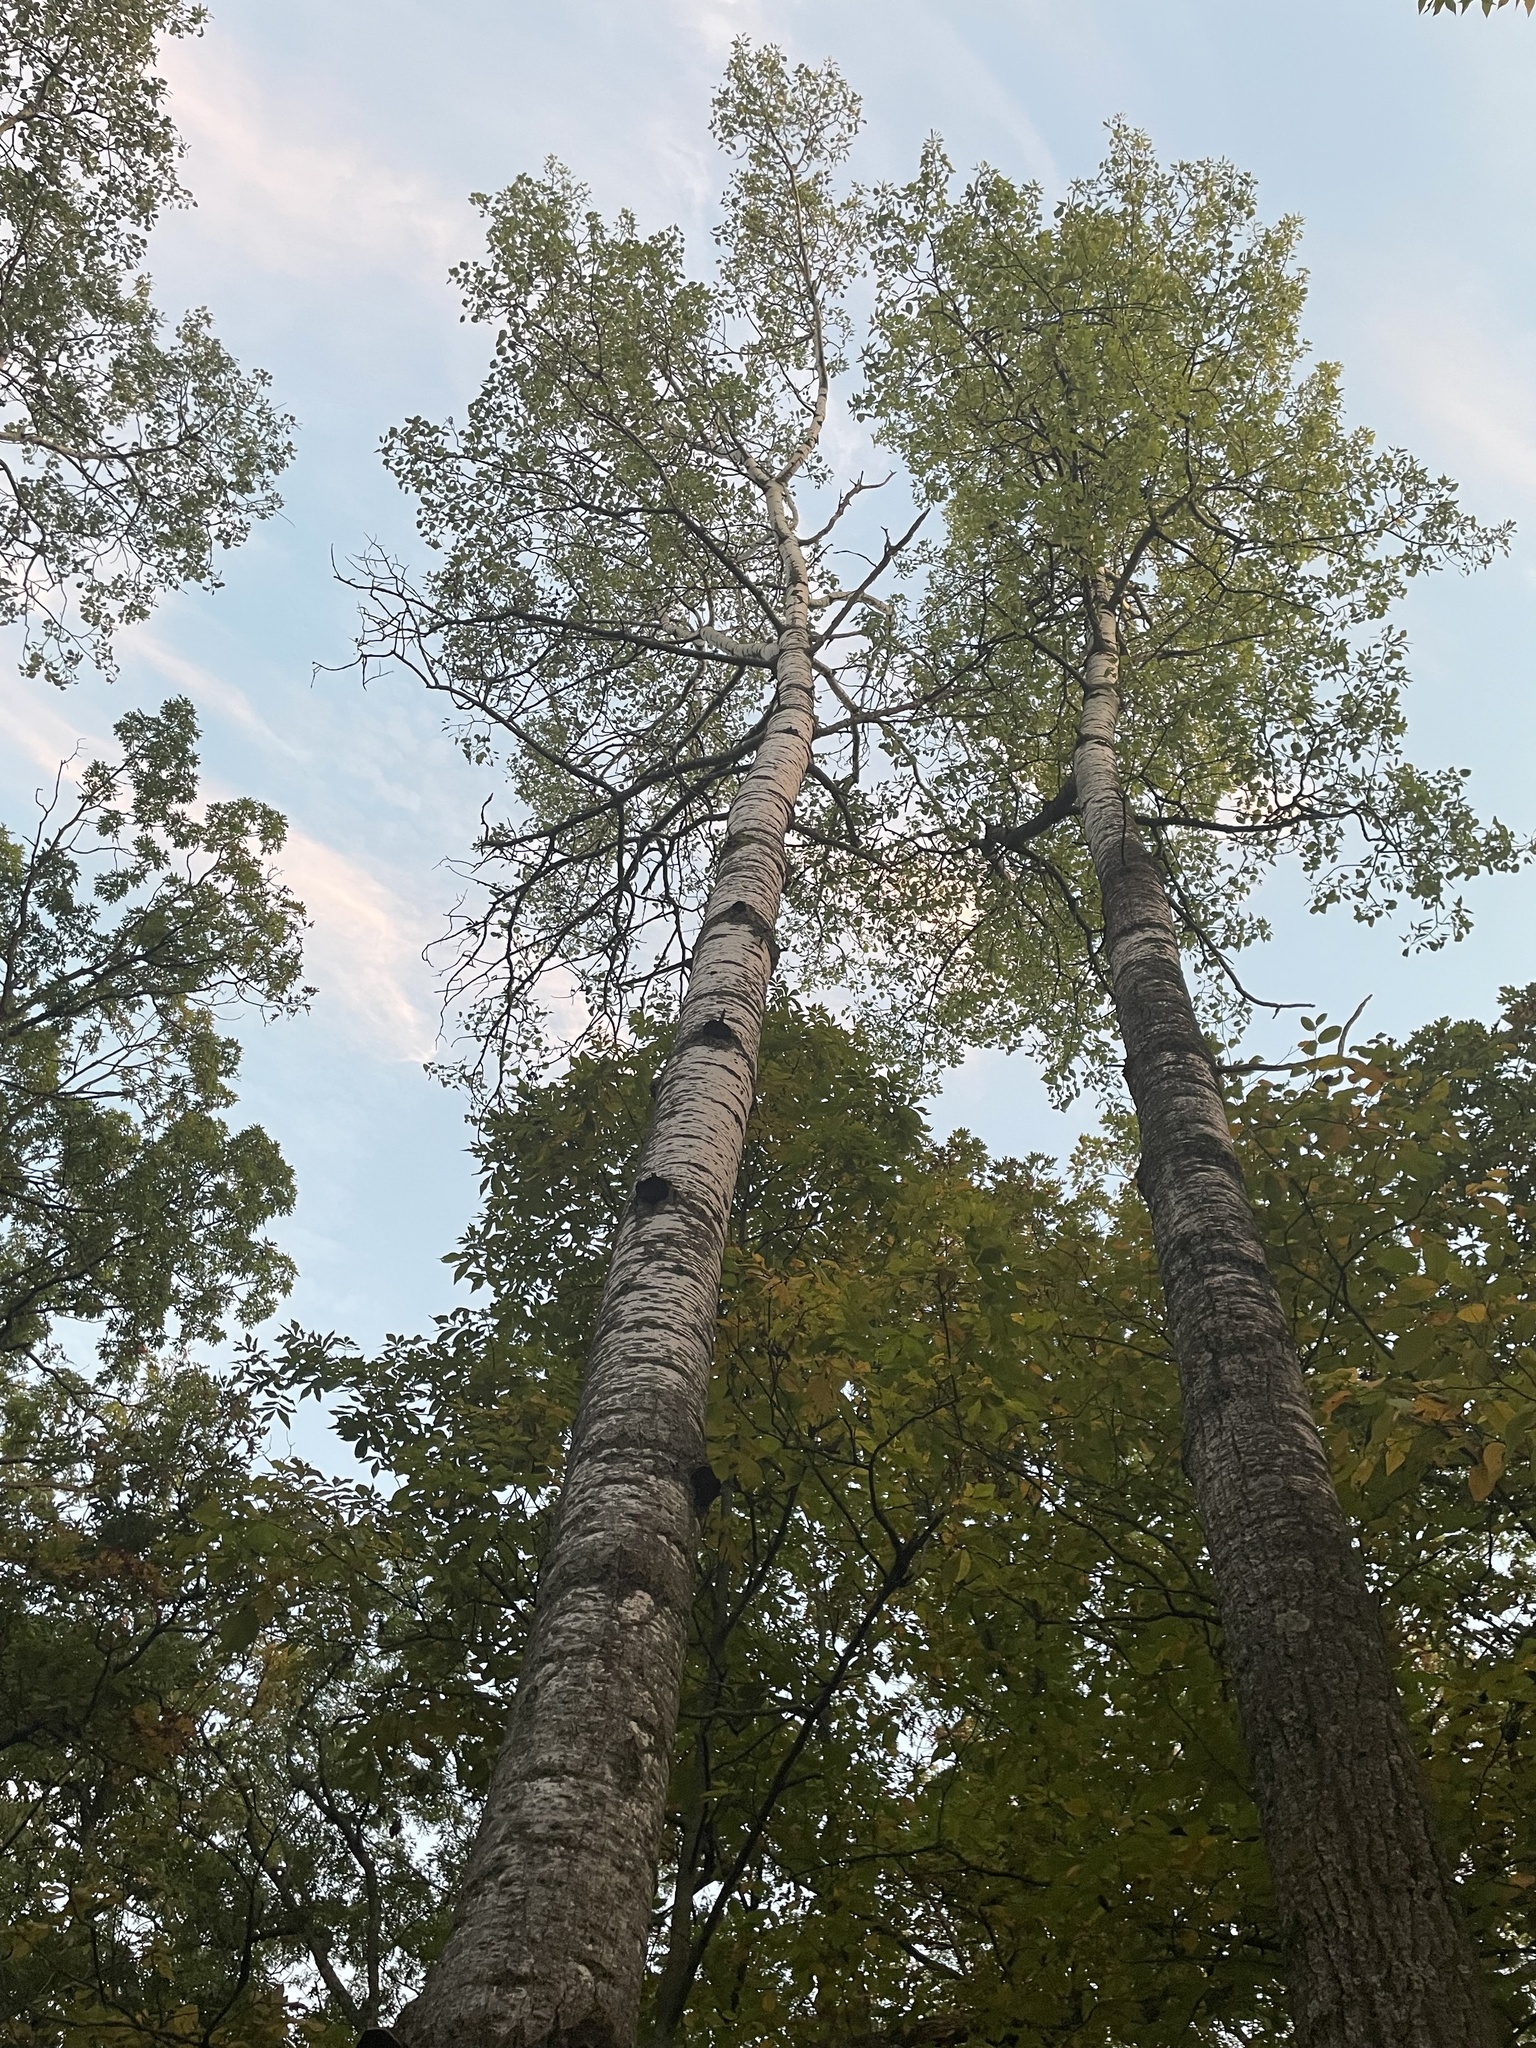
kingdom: Plantae
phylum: Tracheophyta
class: Magnoliopsida
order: Malpighiales
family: Salicaceae
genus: Populus
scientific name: Populus tremuloides
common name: Quaking aspen
